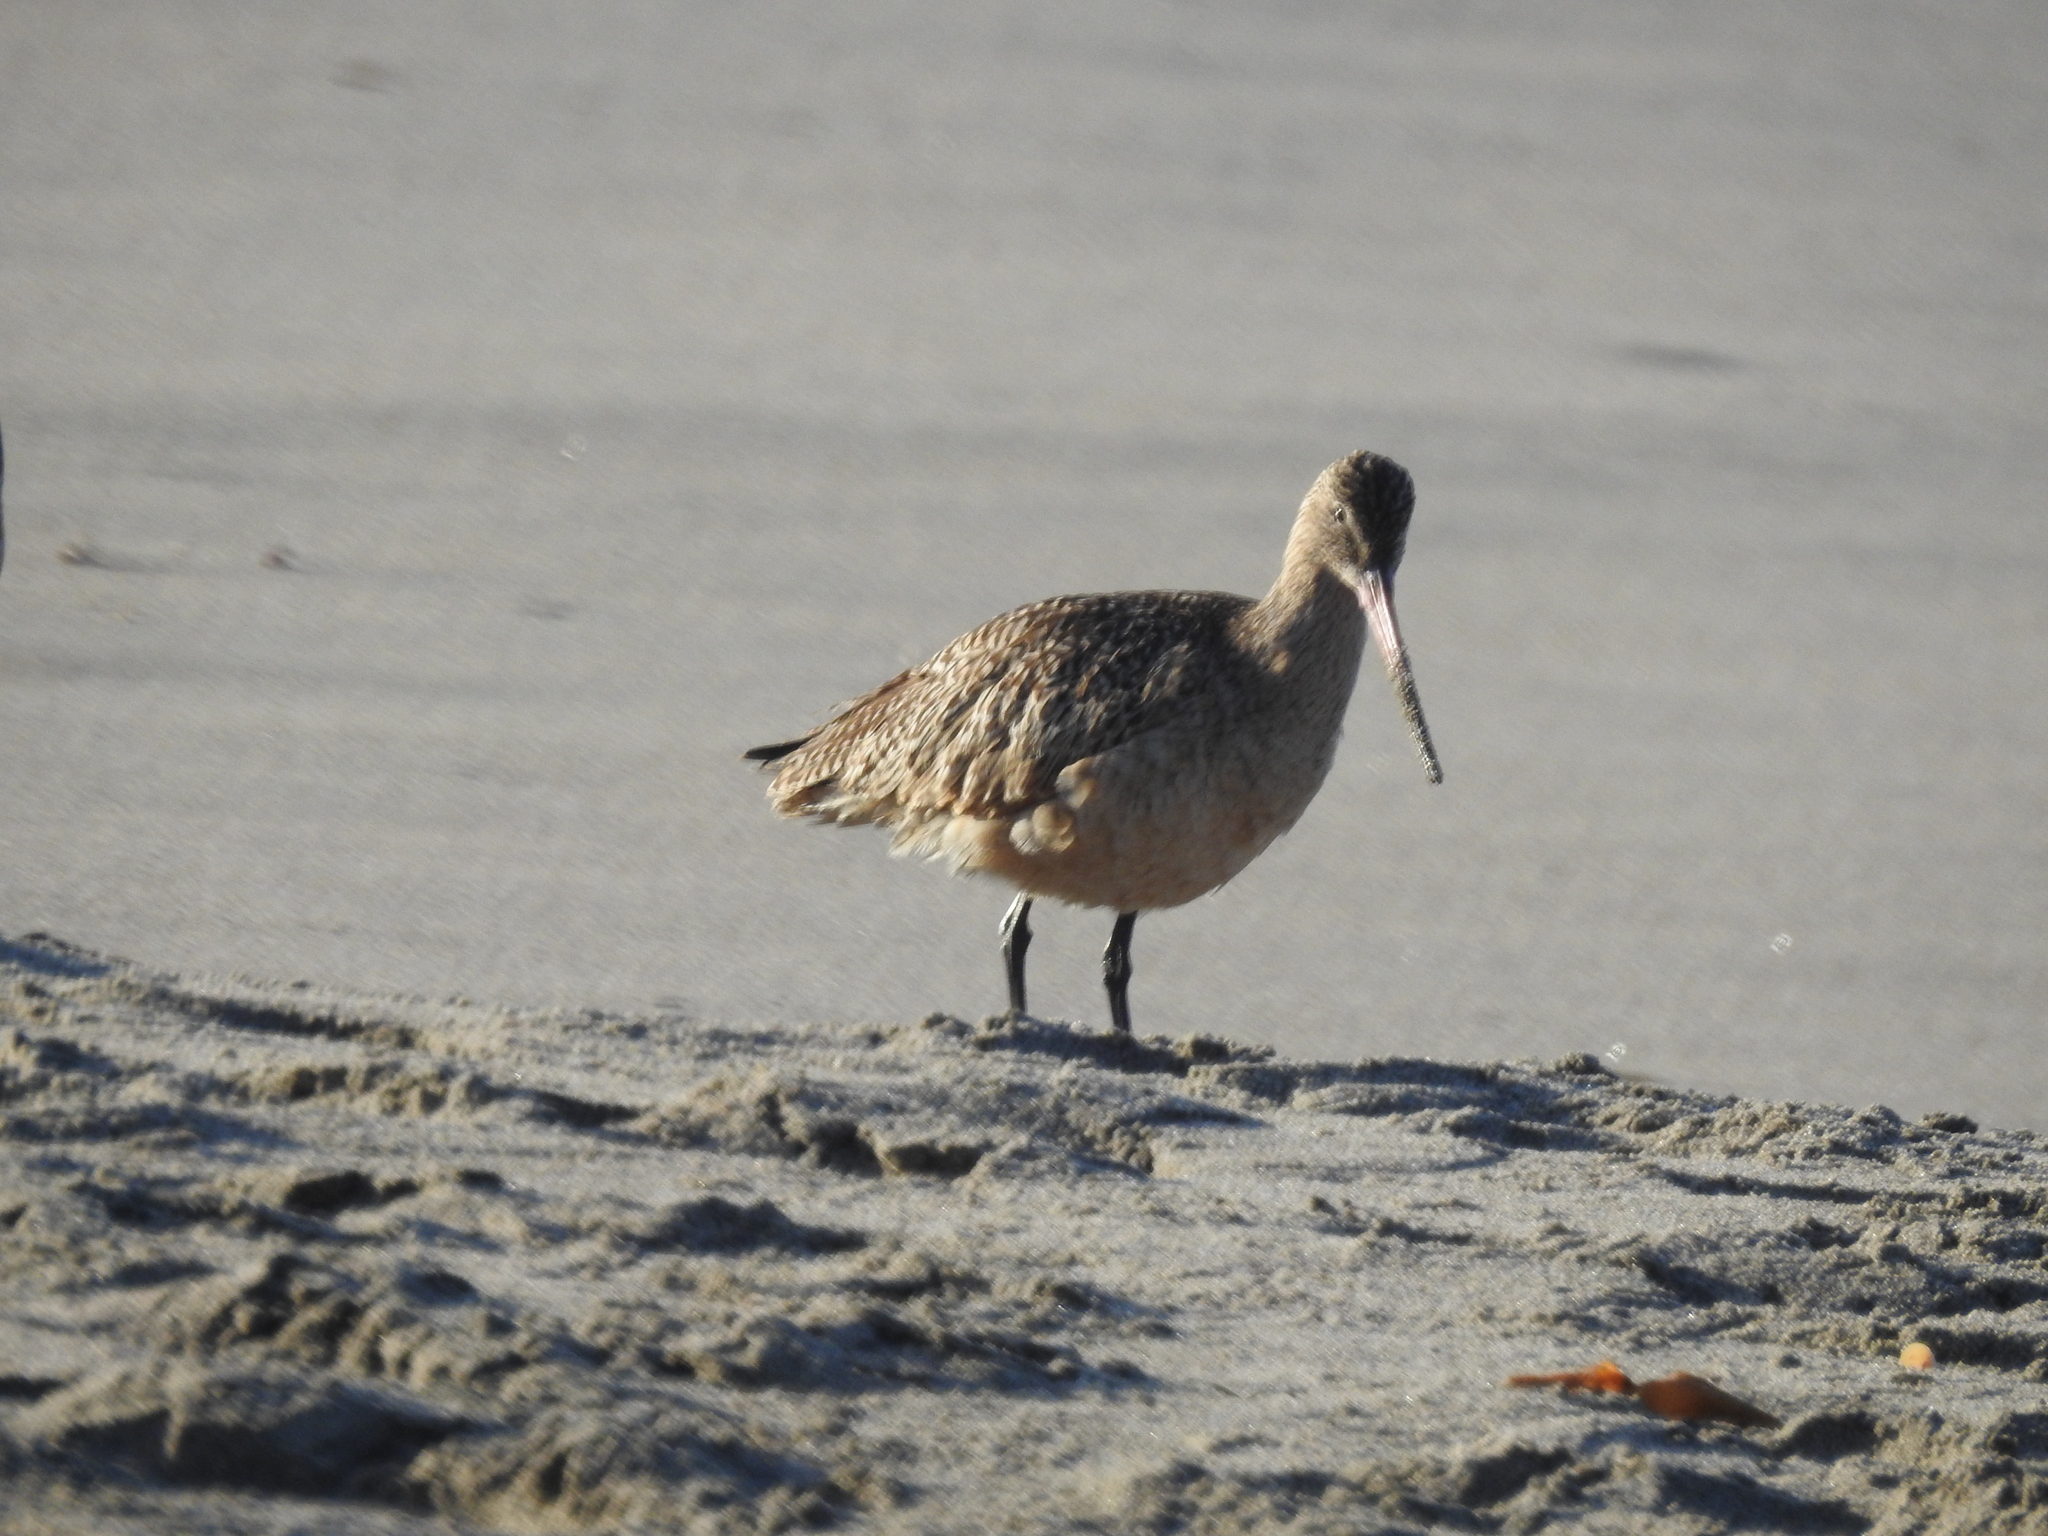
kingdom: Animalia
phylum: Chordata
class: Aves
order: Charadriiformes
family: Scolopacidae
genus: Limosa
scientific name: Limosa fedoa
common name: Marbled godwit
